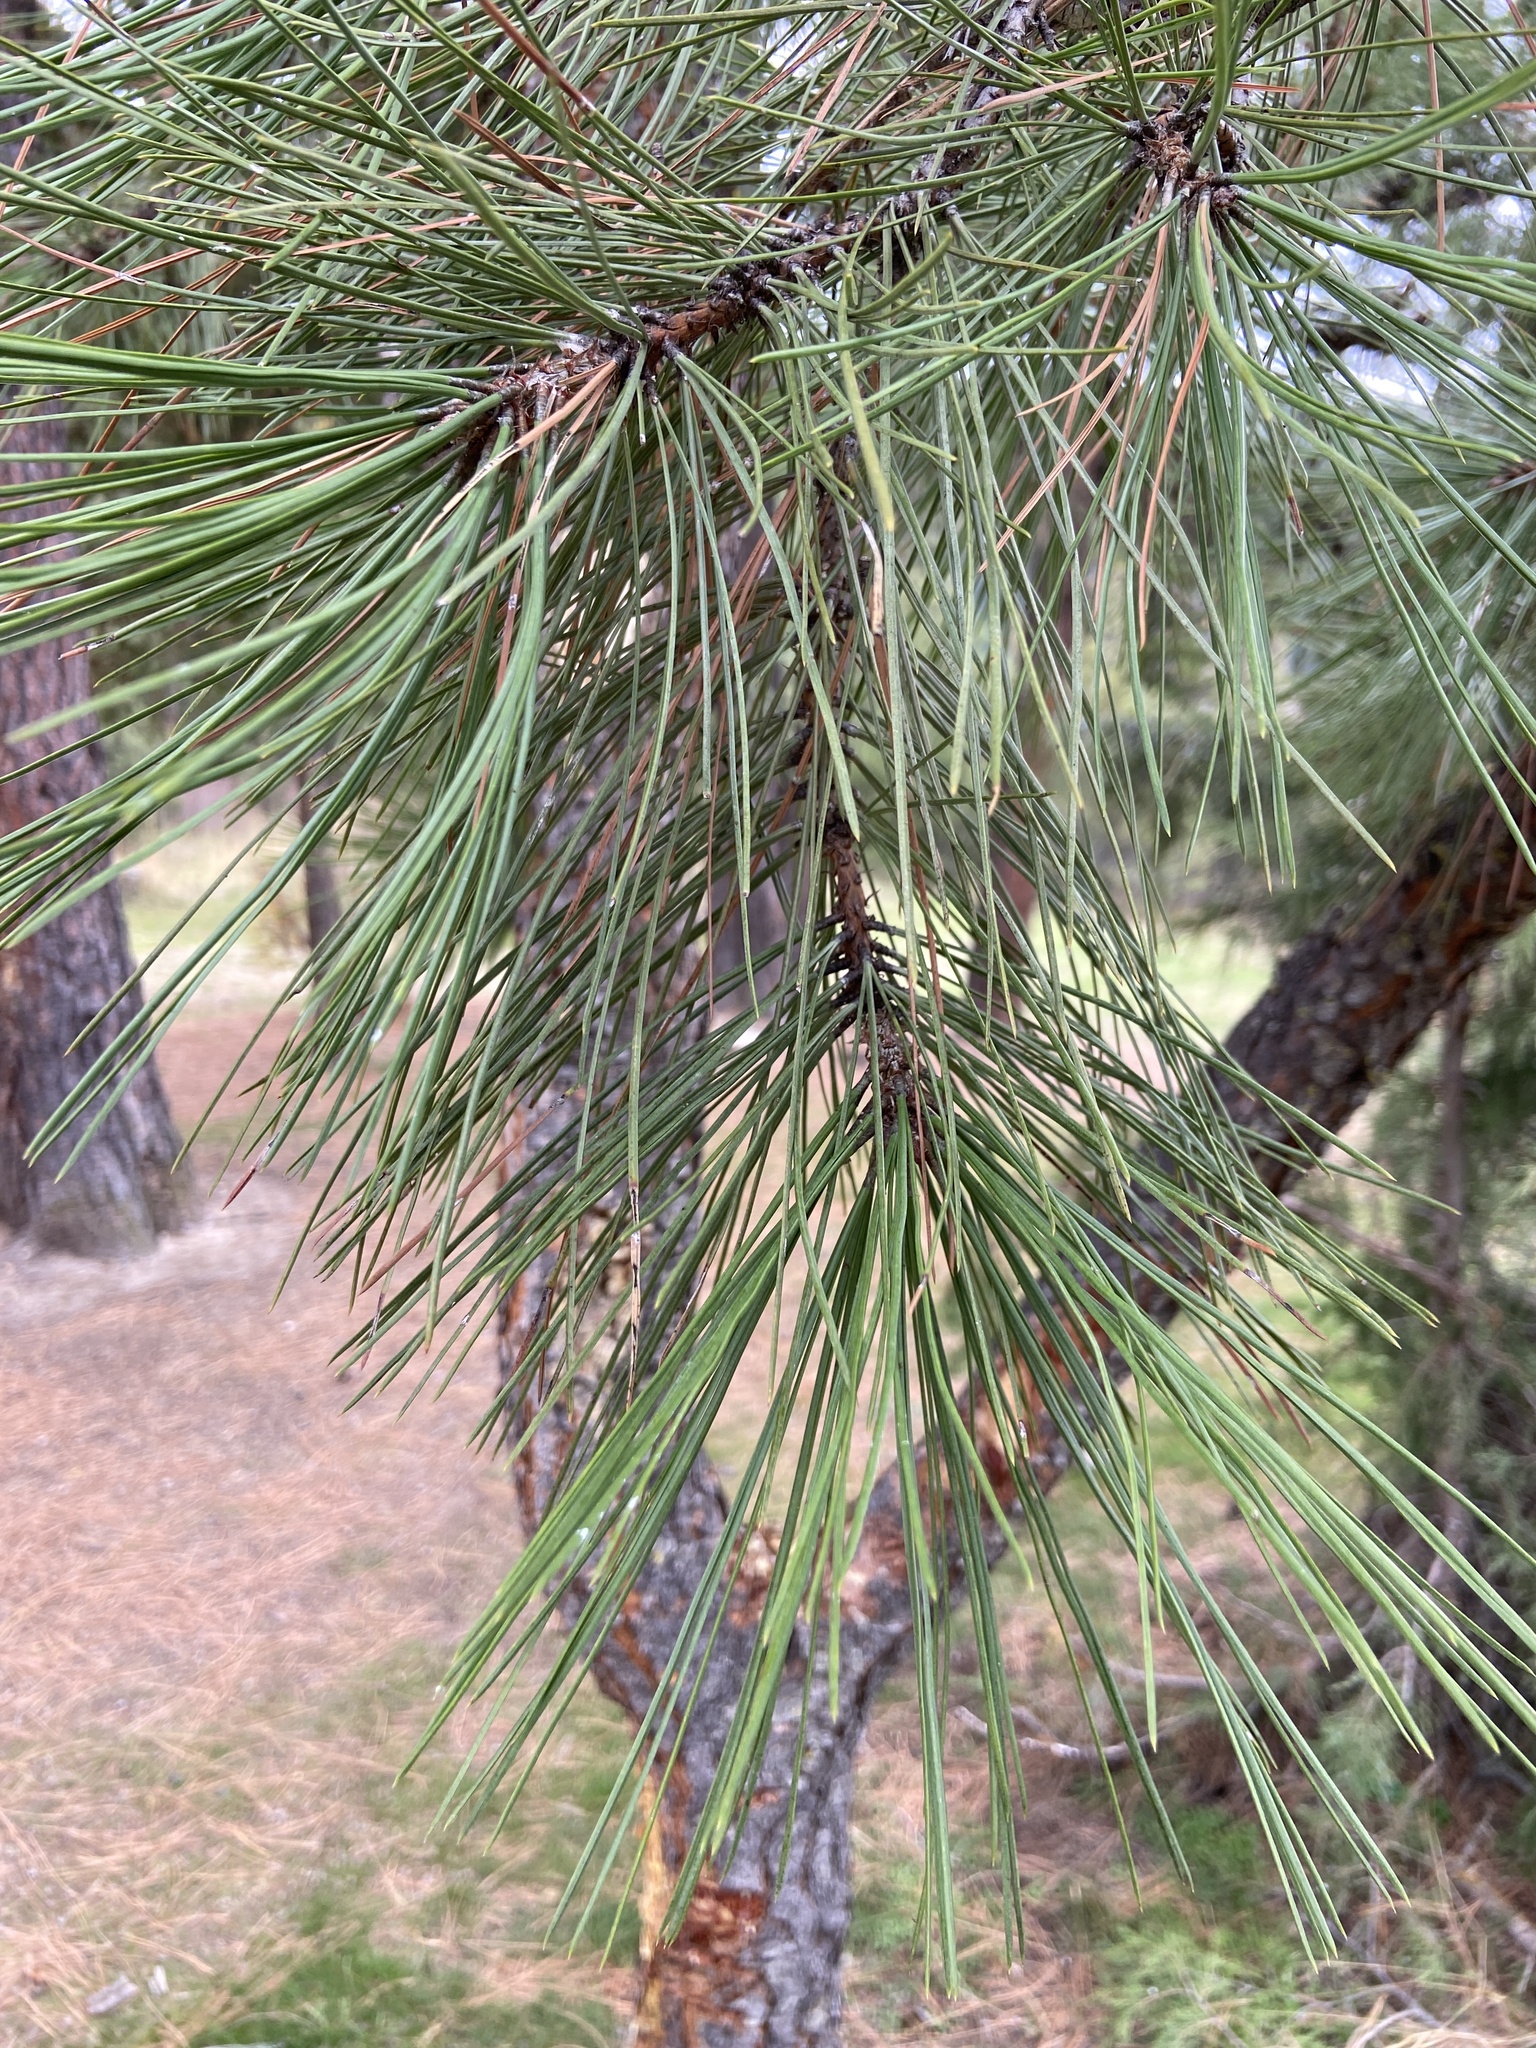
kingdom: Plantae
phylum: Tracheophyta
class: Pinopsida
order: Pinales
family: Pinaceae
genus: Pinus
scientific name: Pinus ponderosa
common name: Western yellow-pine
